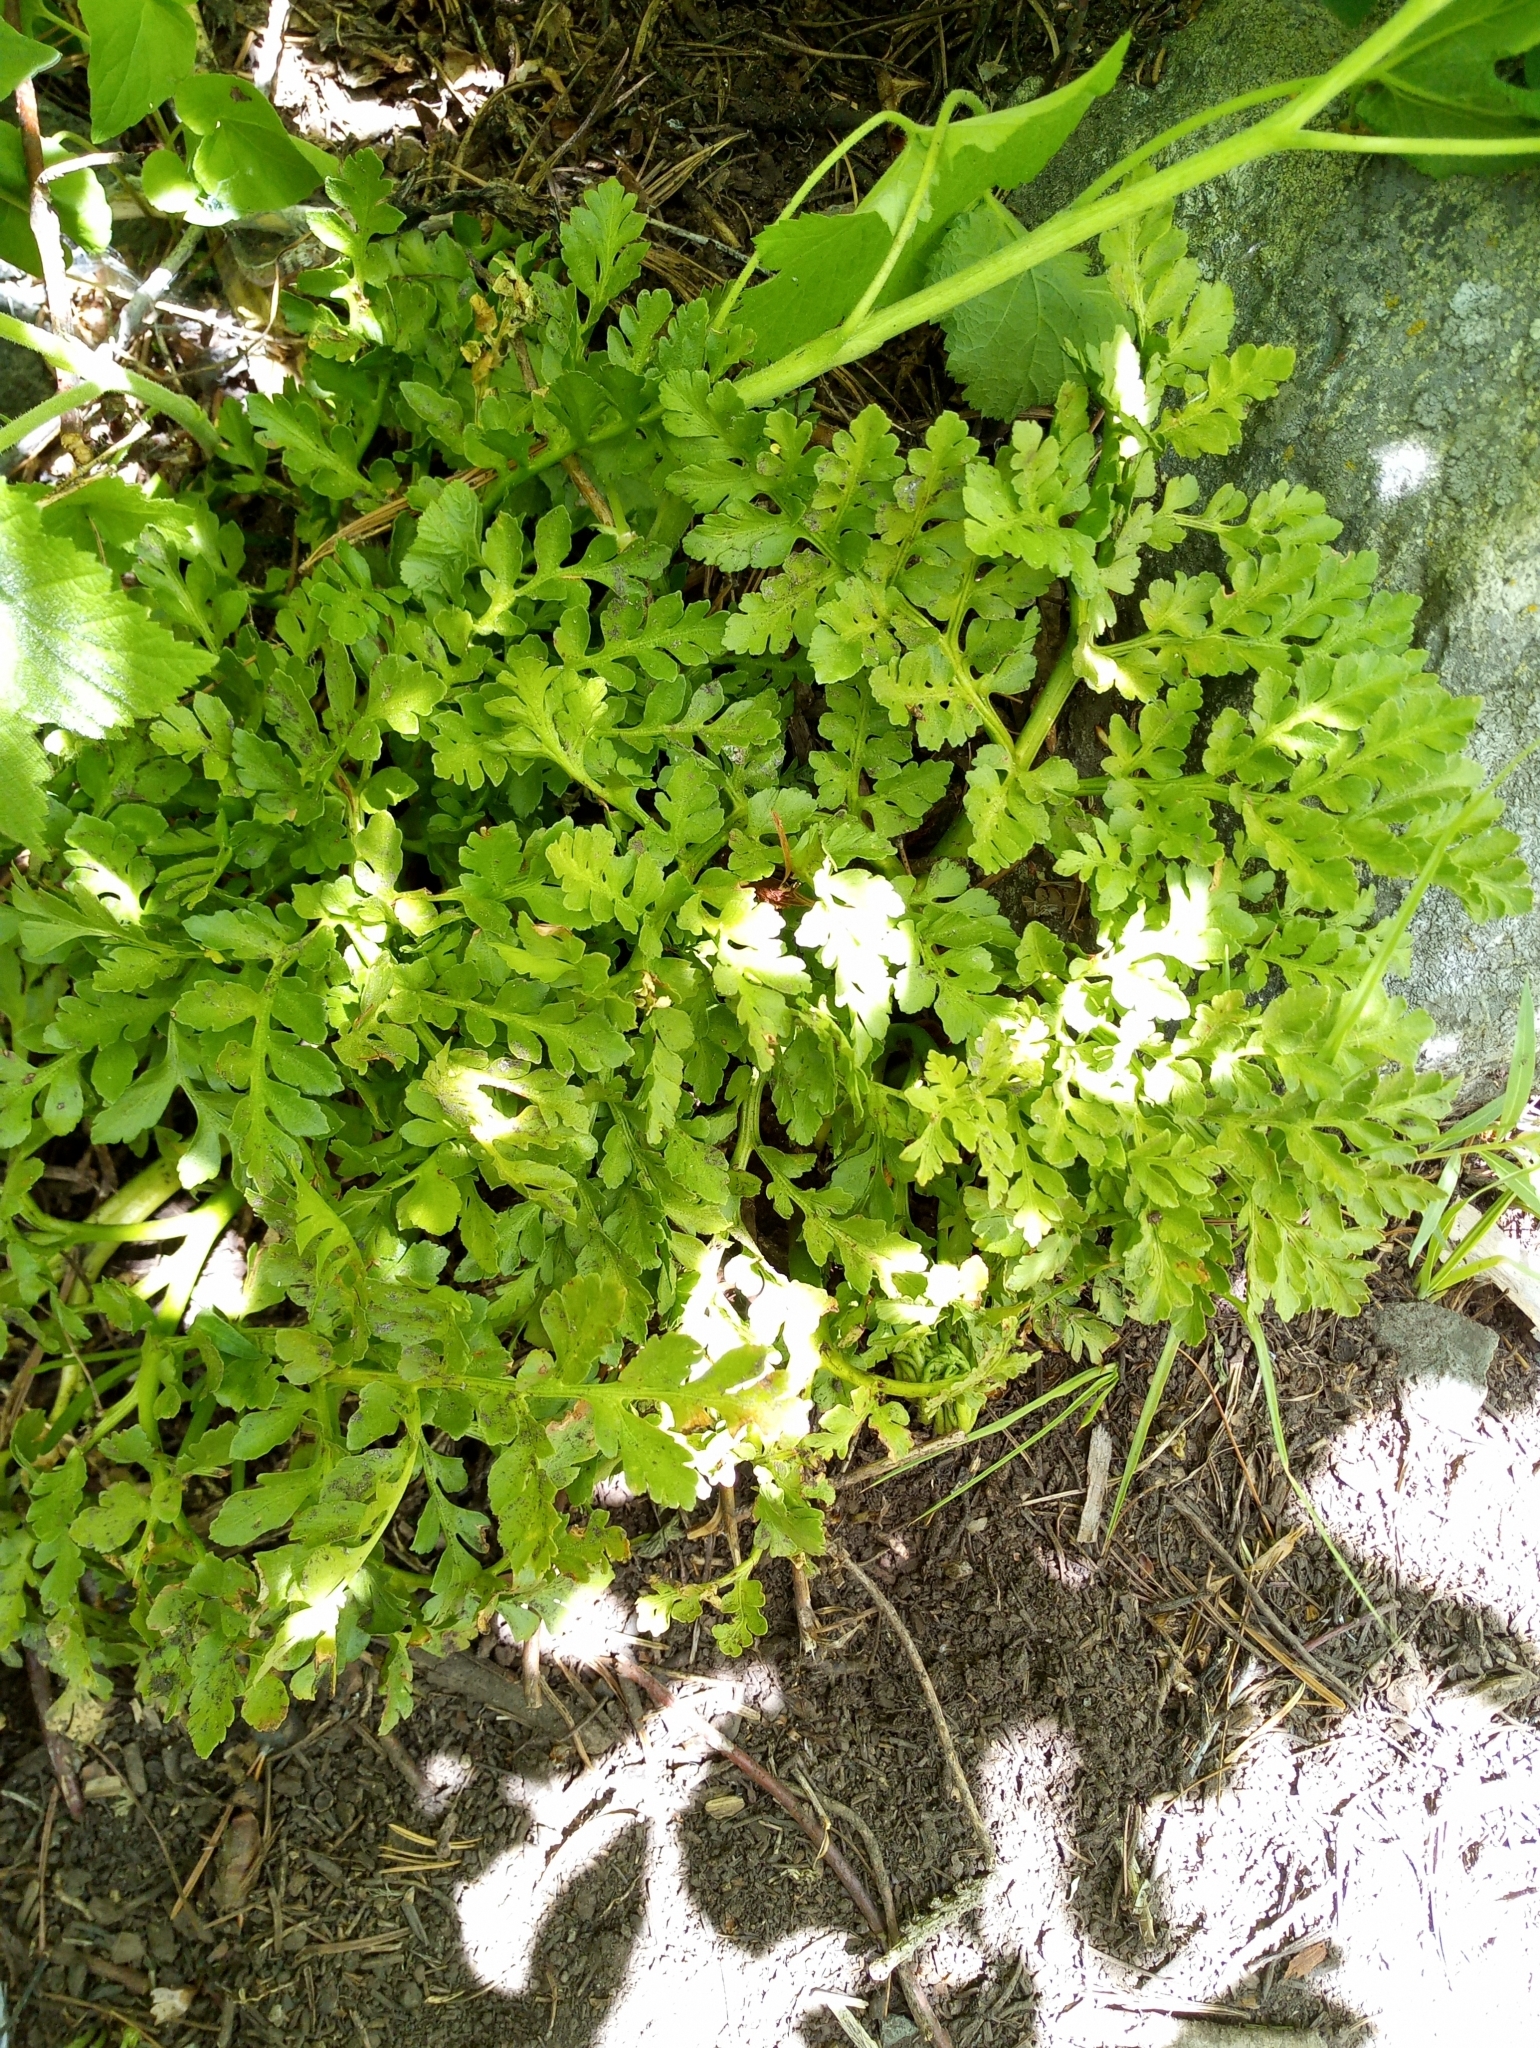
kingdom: Plantae
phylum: Tracheophyta
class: Polypodiopsida
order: Ophioglossales
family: Ophioglossaceae
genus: Sceptridium
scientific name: Sceptridium multifidum
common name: Leathery grape fern
